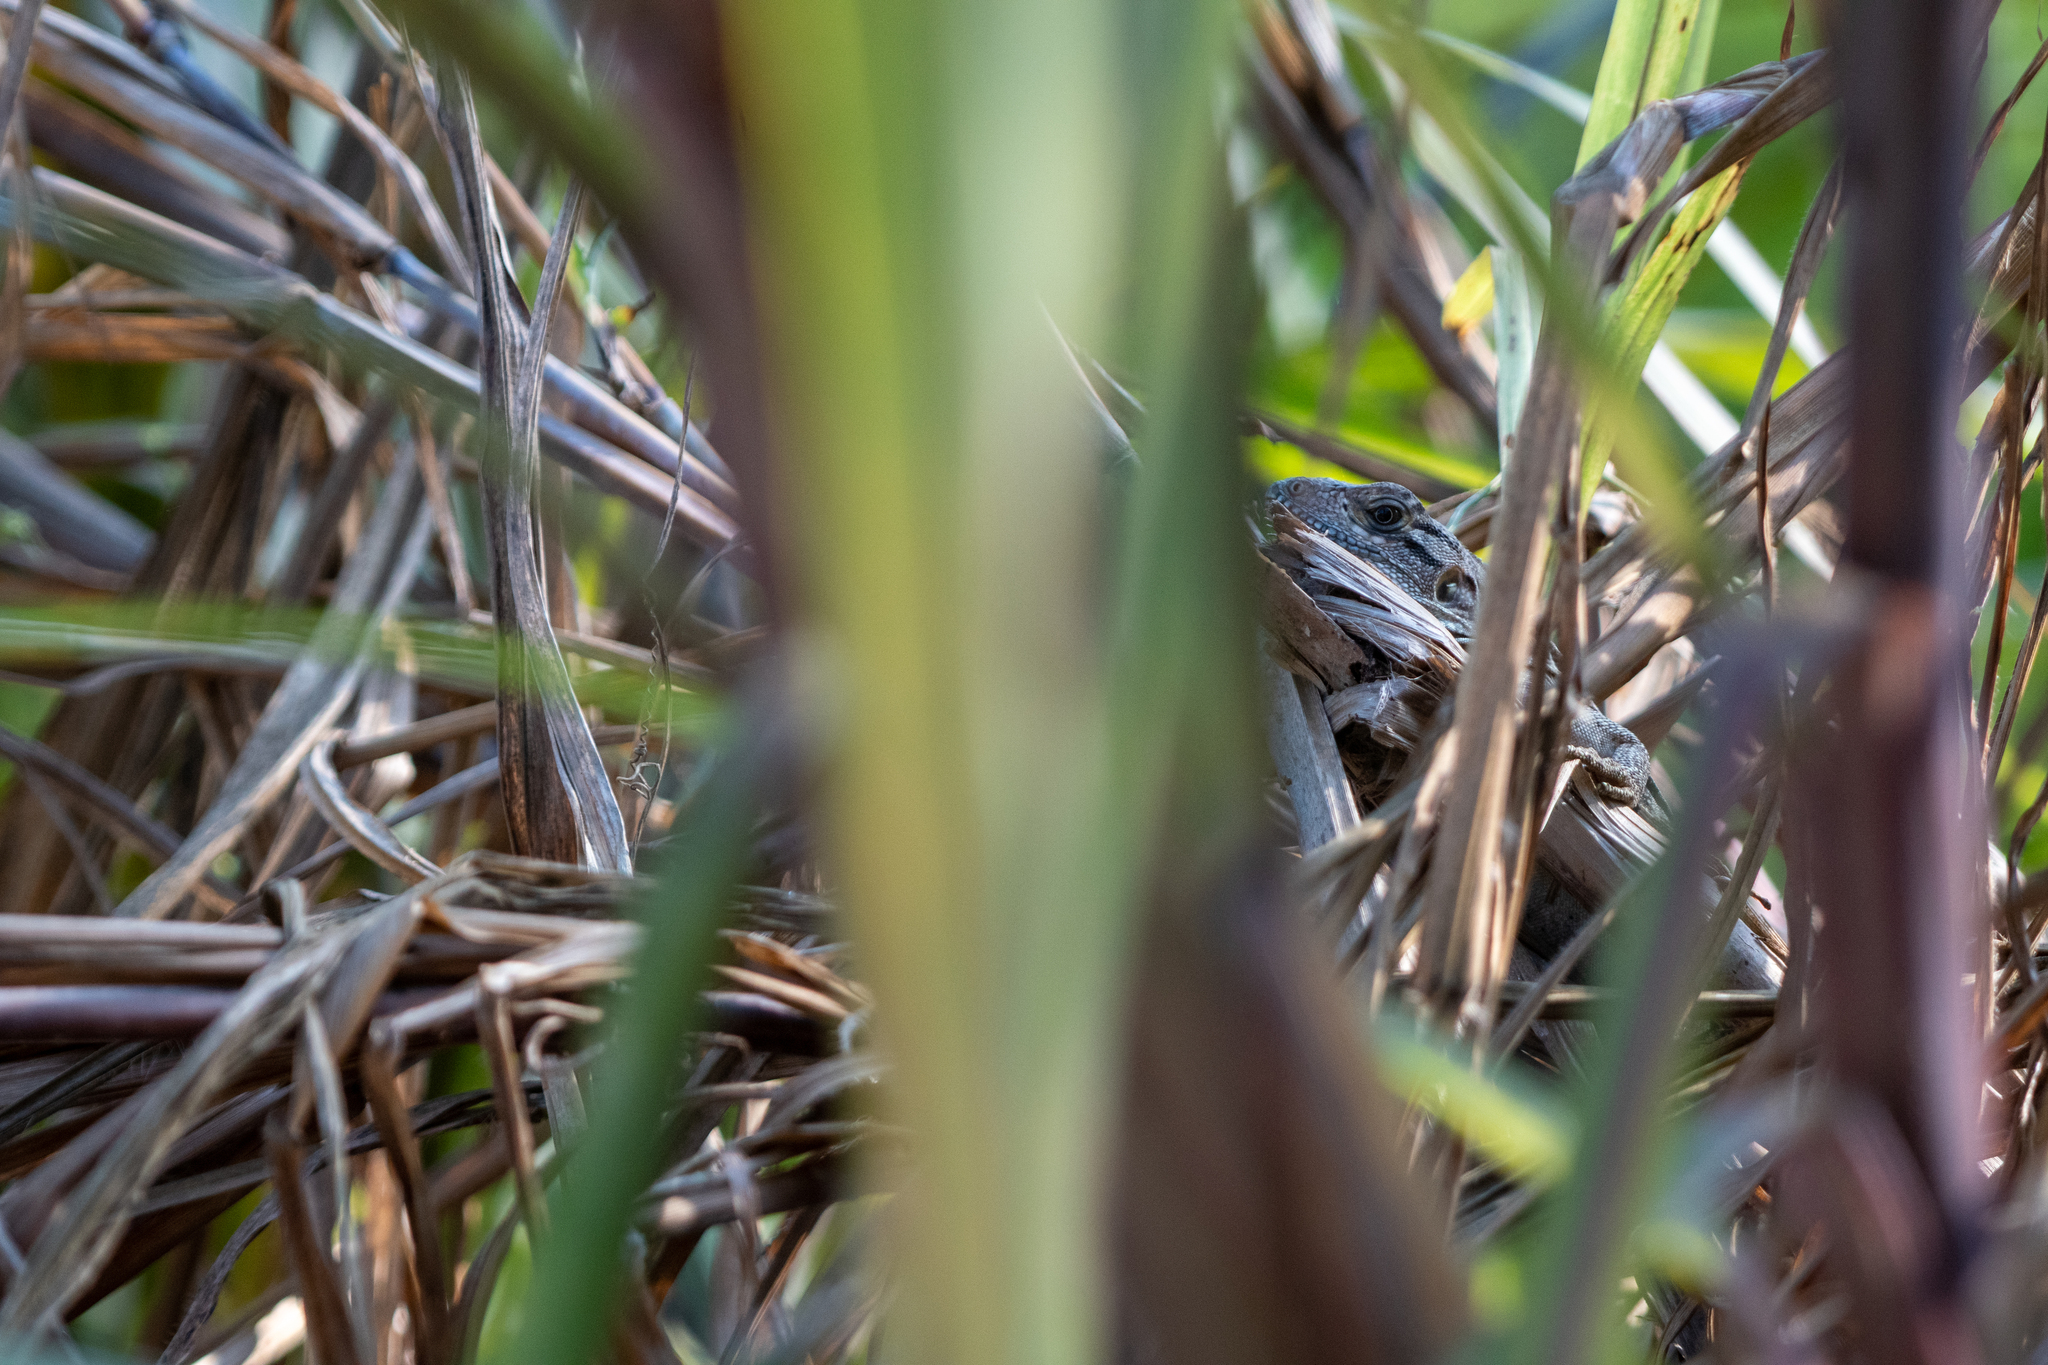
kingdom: Animalia
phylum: Chordata
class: Squamata
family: Iguanidae
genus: Ctenosaura
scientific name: Ctenosaura similis
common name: Black spiny-tailed iguana
